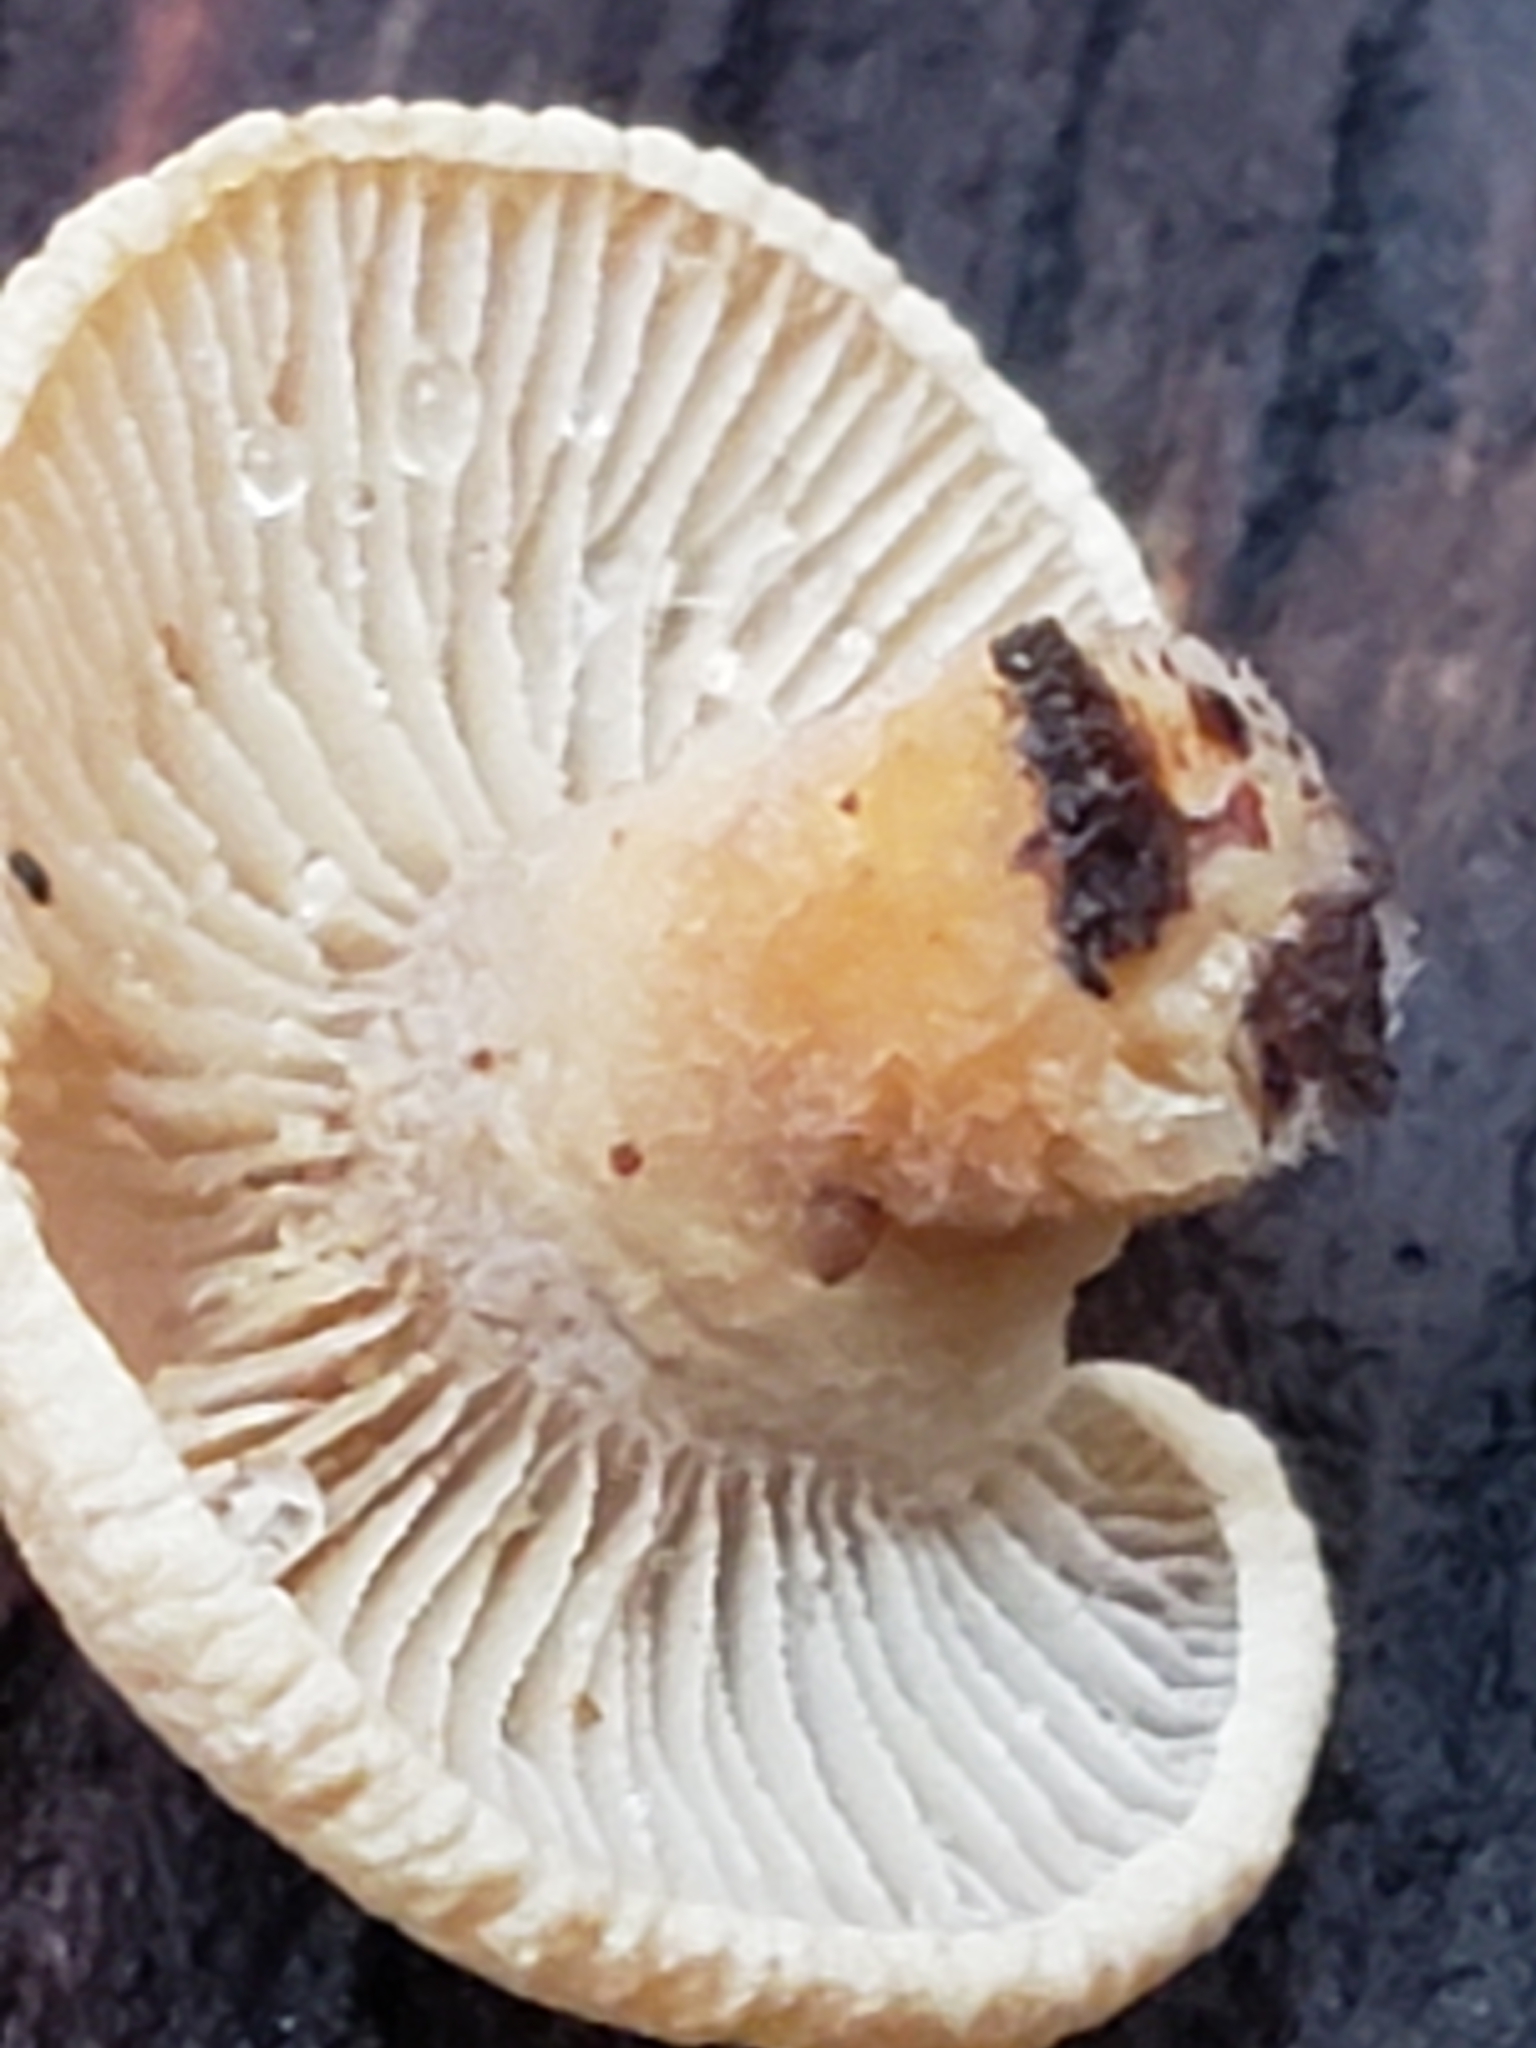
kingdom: Fungi
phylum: Basidiomycota
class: Agaricomycetes
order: Agaricales
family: Mycenaceae
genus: Panellus
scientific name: Panellus stipticus
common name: Bitter oysterling
